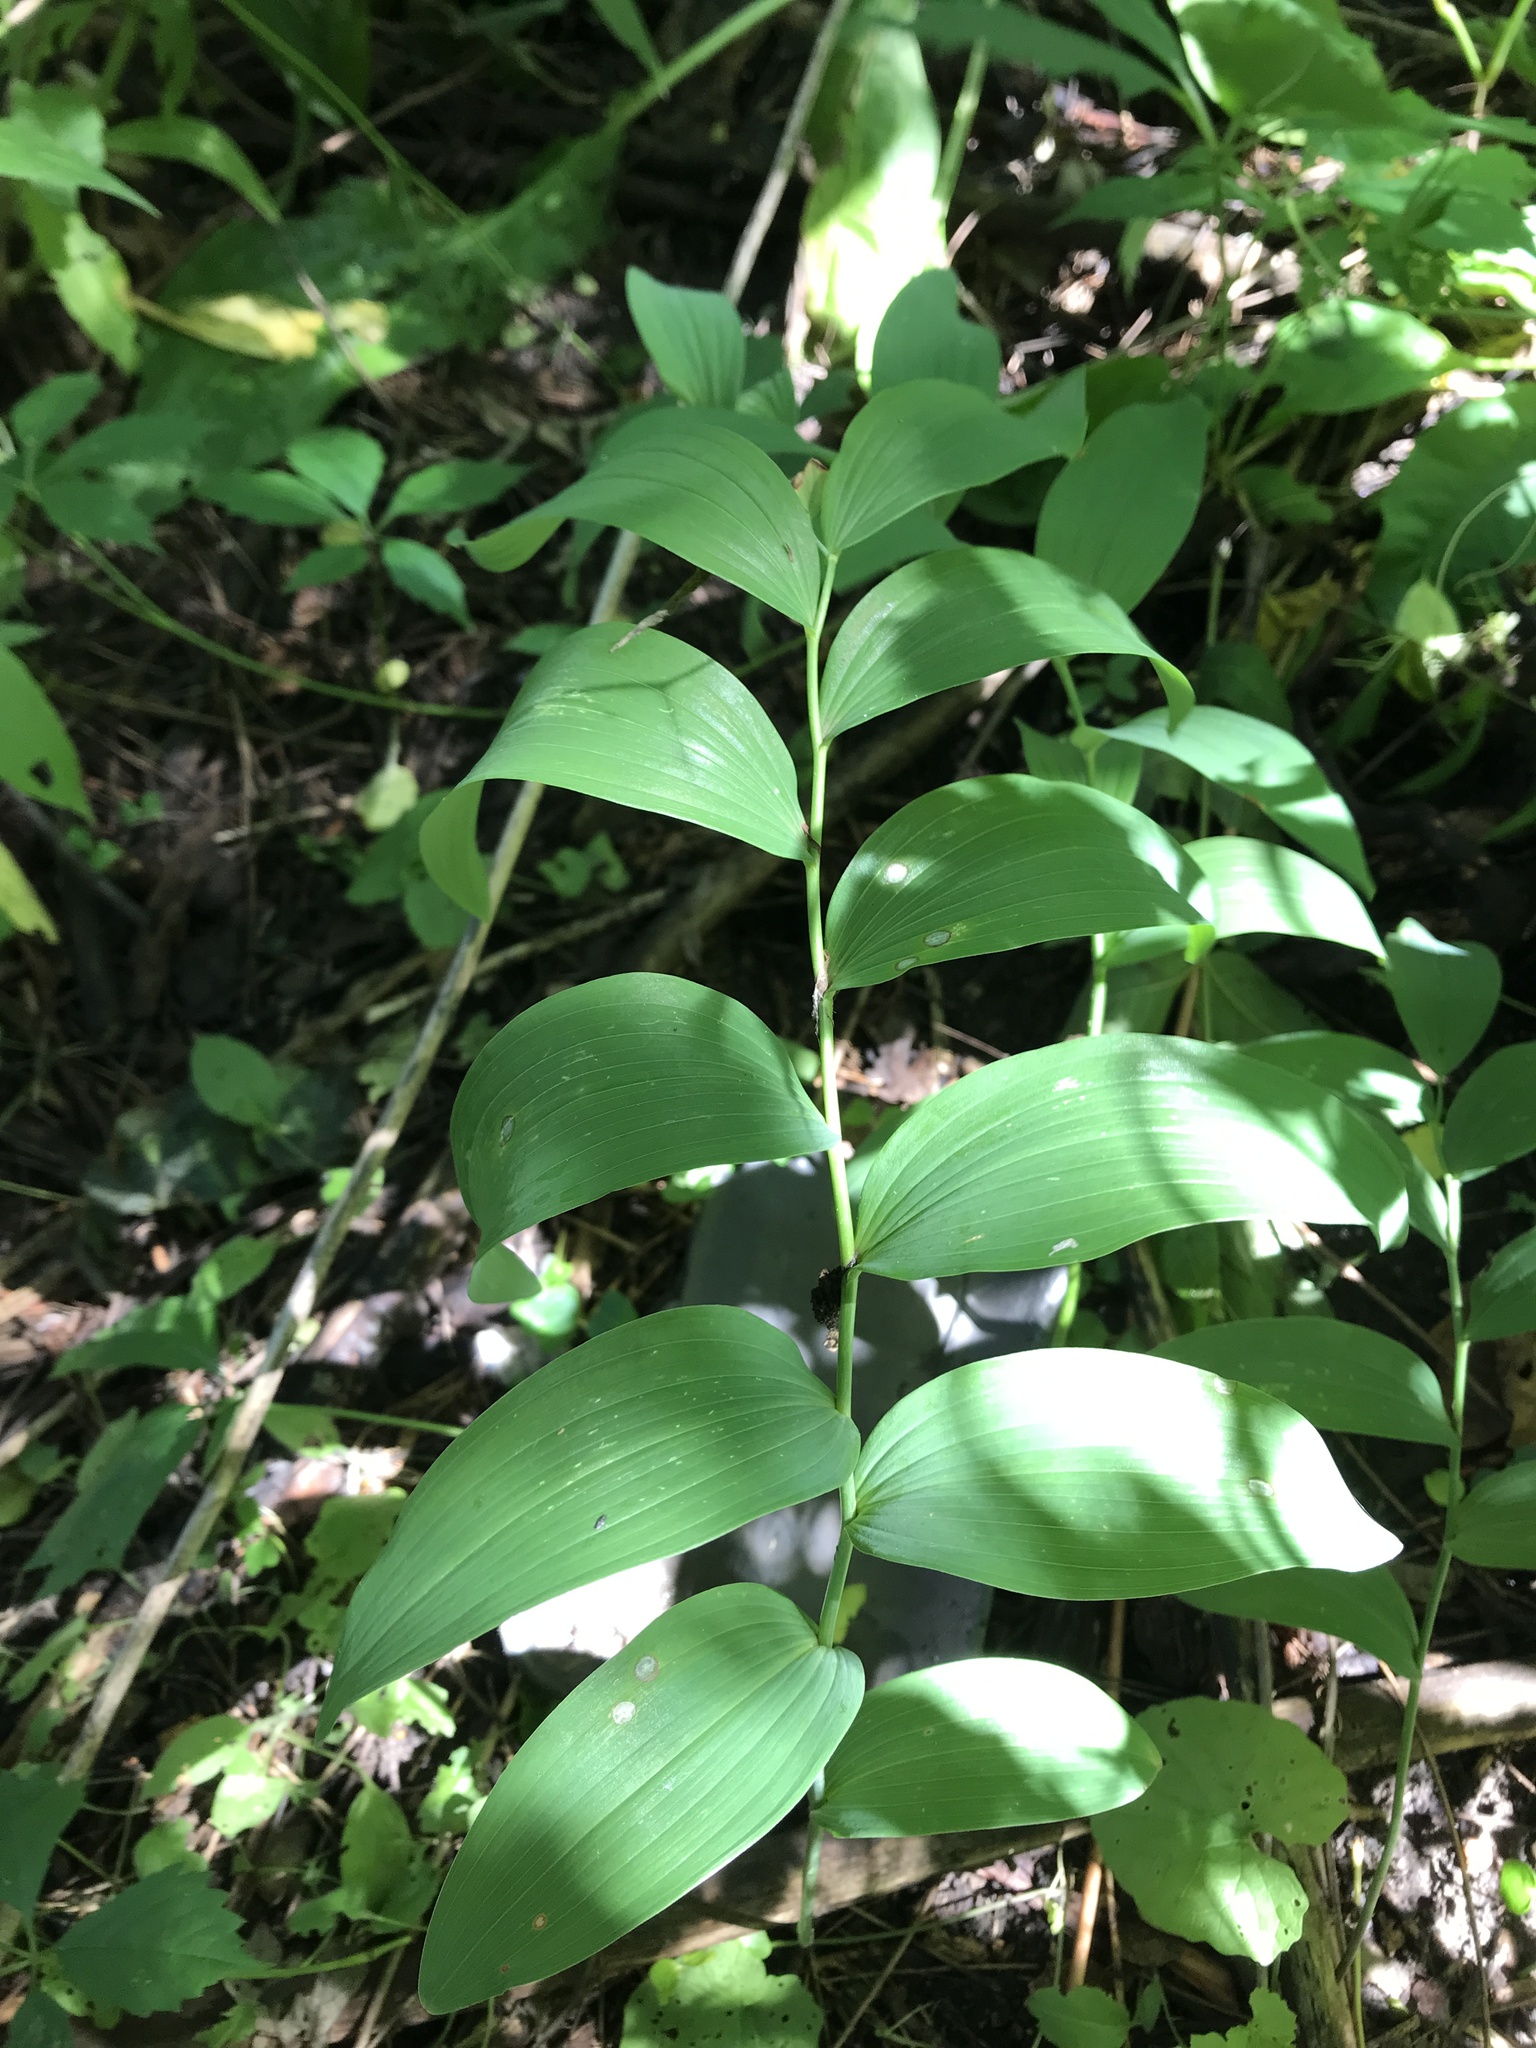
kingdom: Plantae
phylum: Tracheophyta
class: Liliopsida
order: Asparagales
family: Asparagaceae
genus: Polygonatum
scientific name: Polygonatum biflorum
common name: American solomon's-seal
